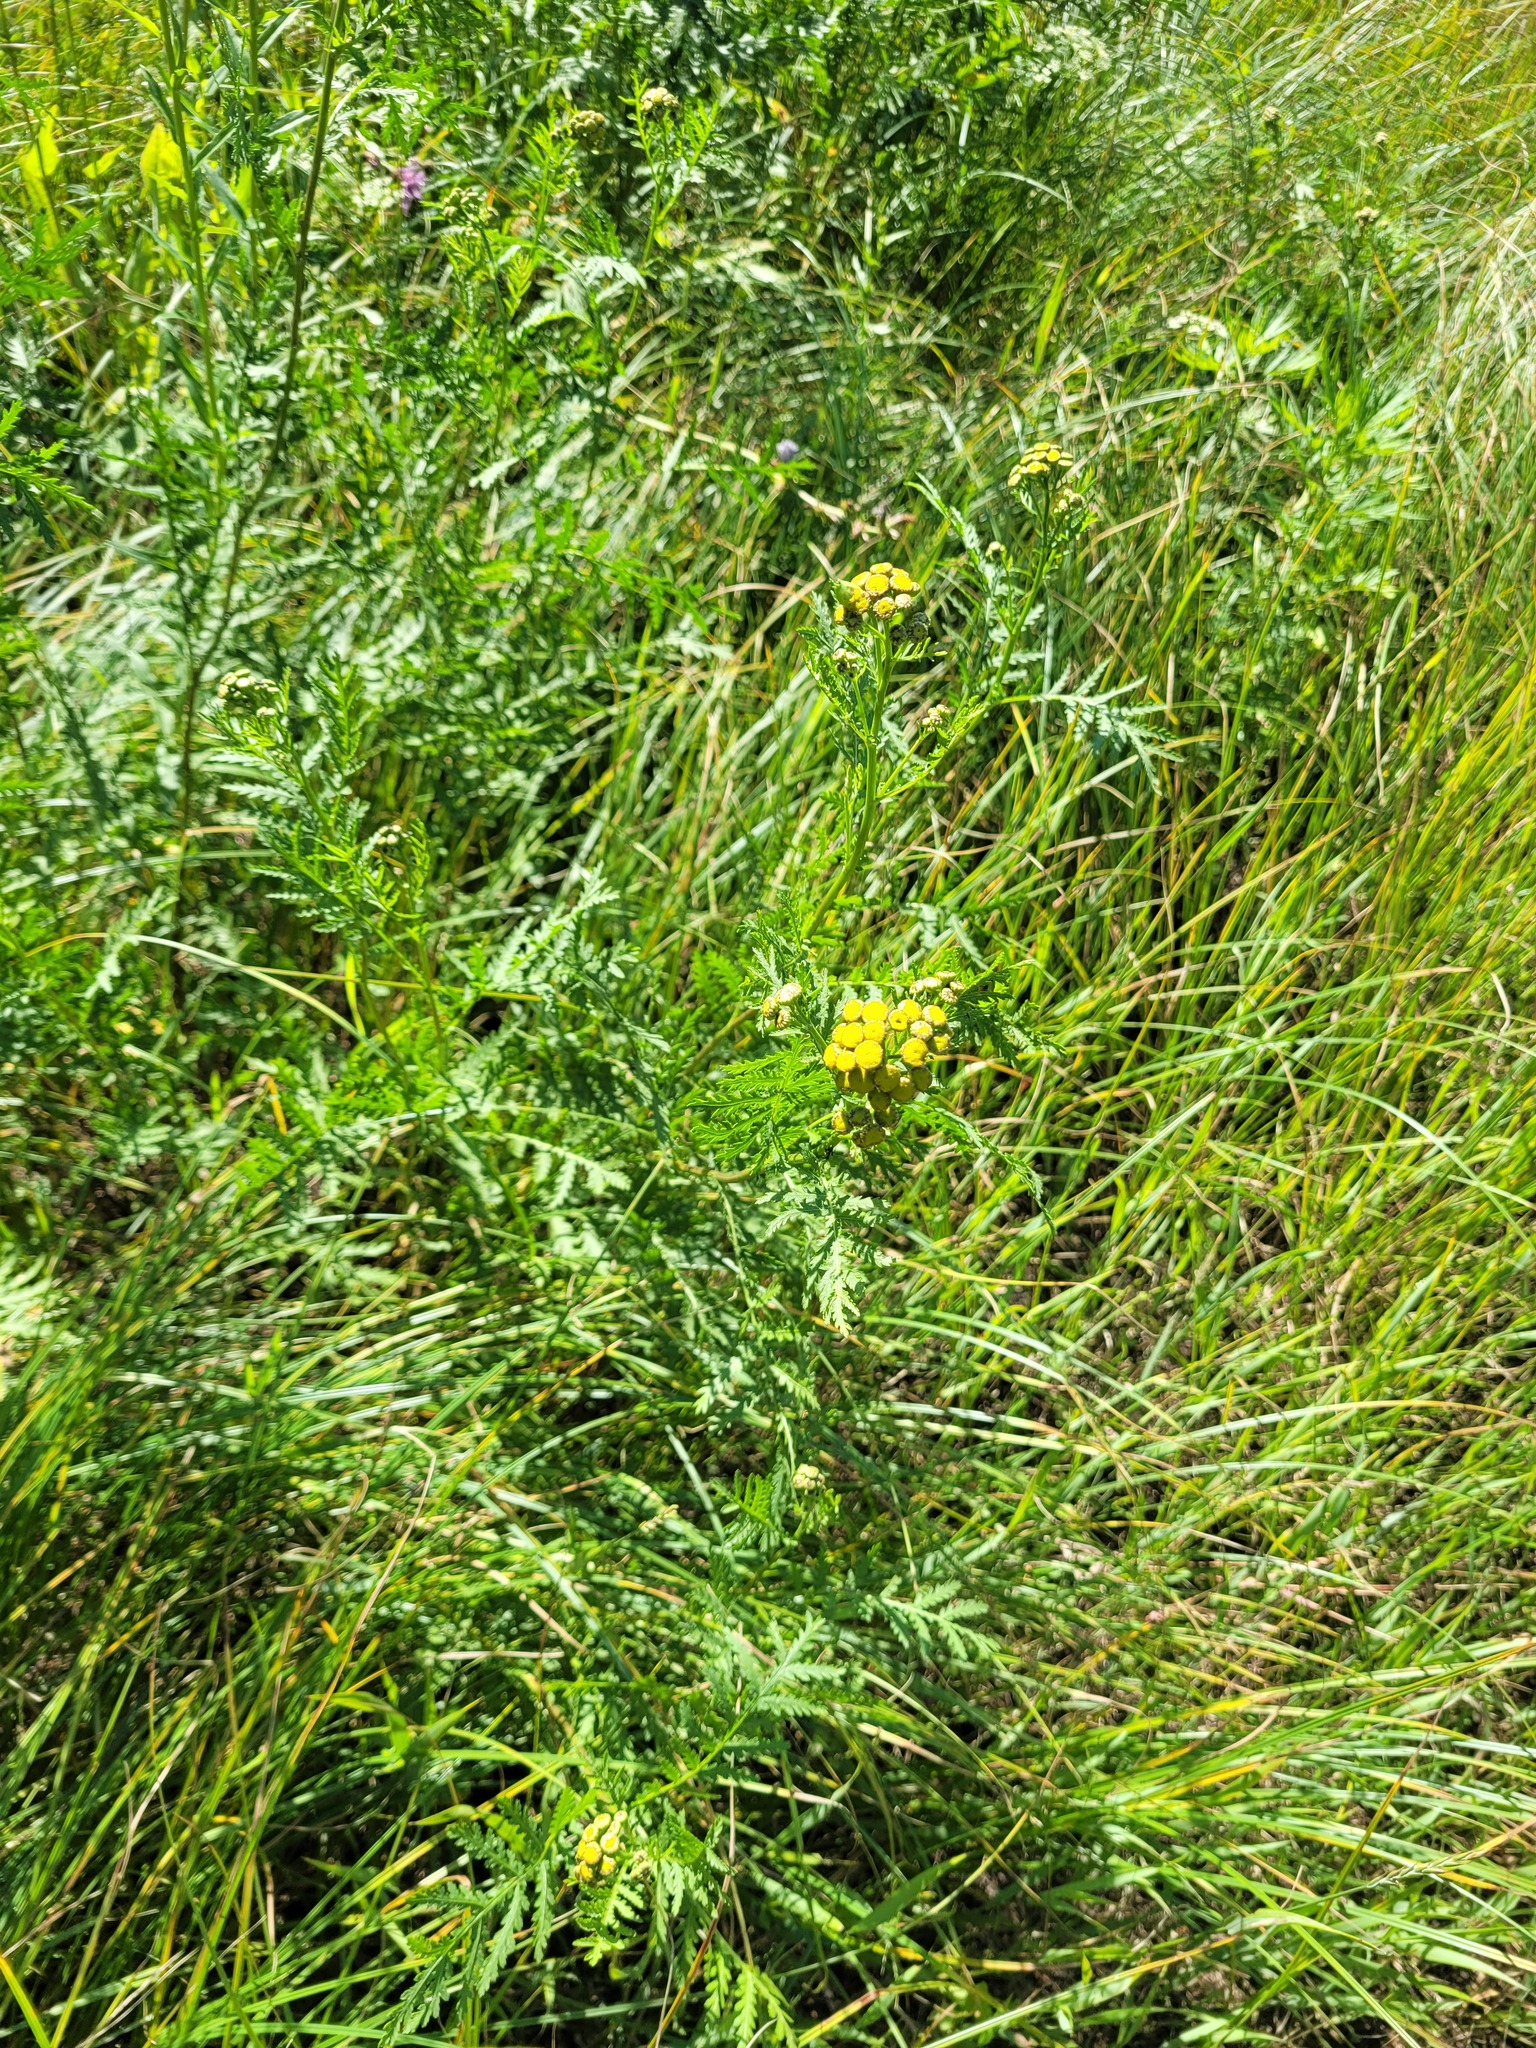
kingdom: Plantae
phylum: Tracheophyta
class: Magnoliopsida
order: Asterales
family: Asteraceae
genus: Tanacetum
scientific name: Tanacetum vulgare
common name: Common tansy
